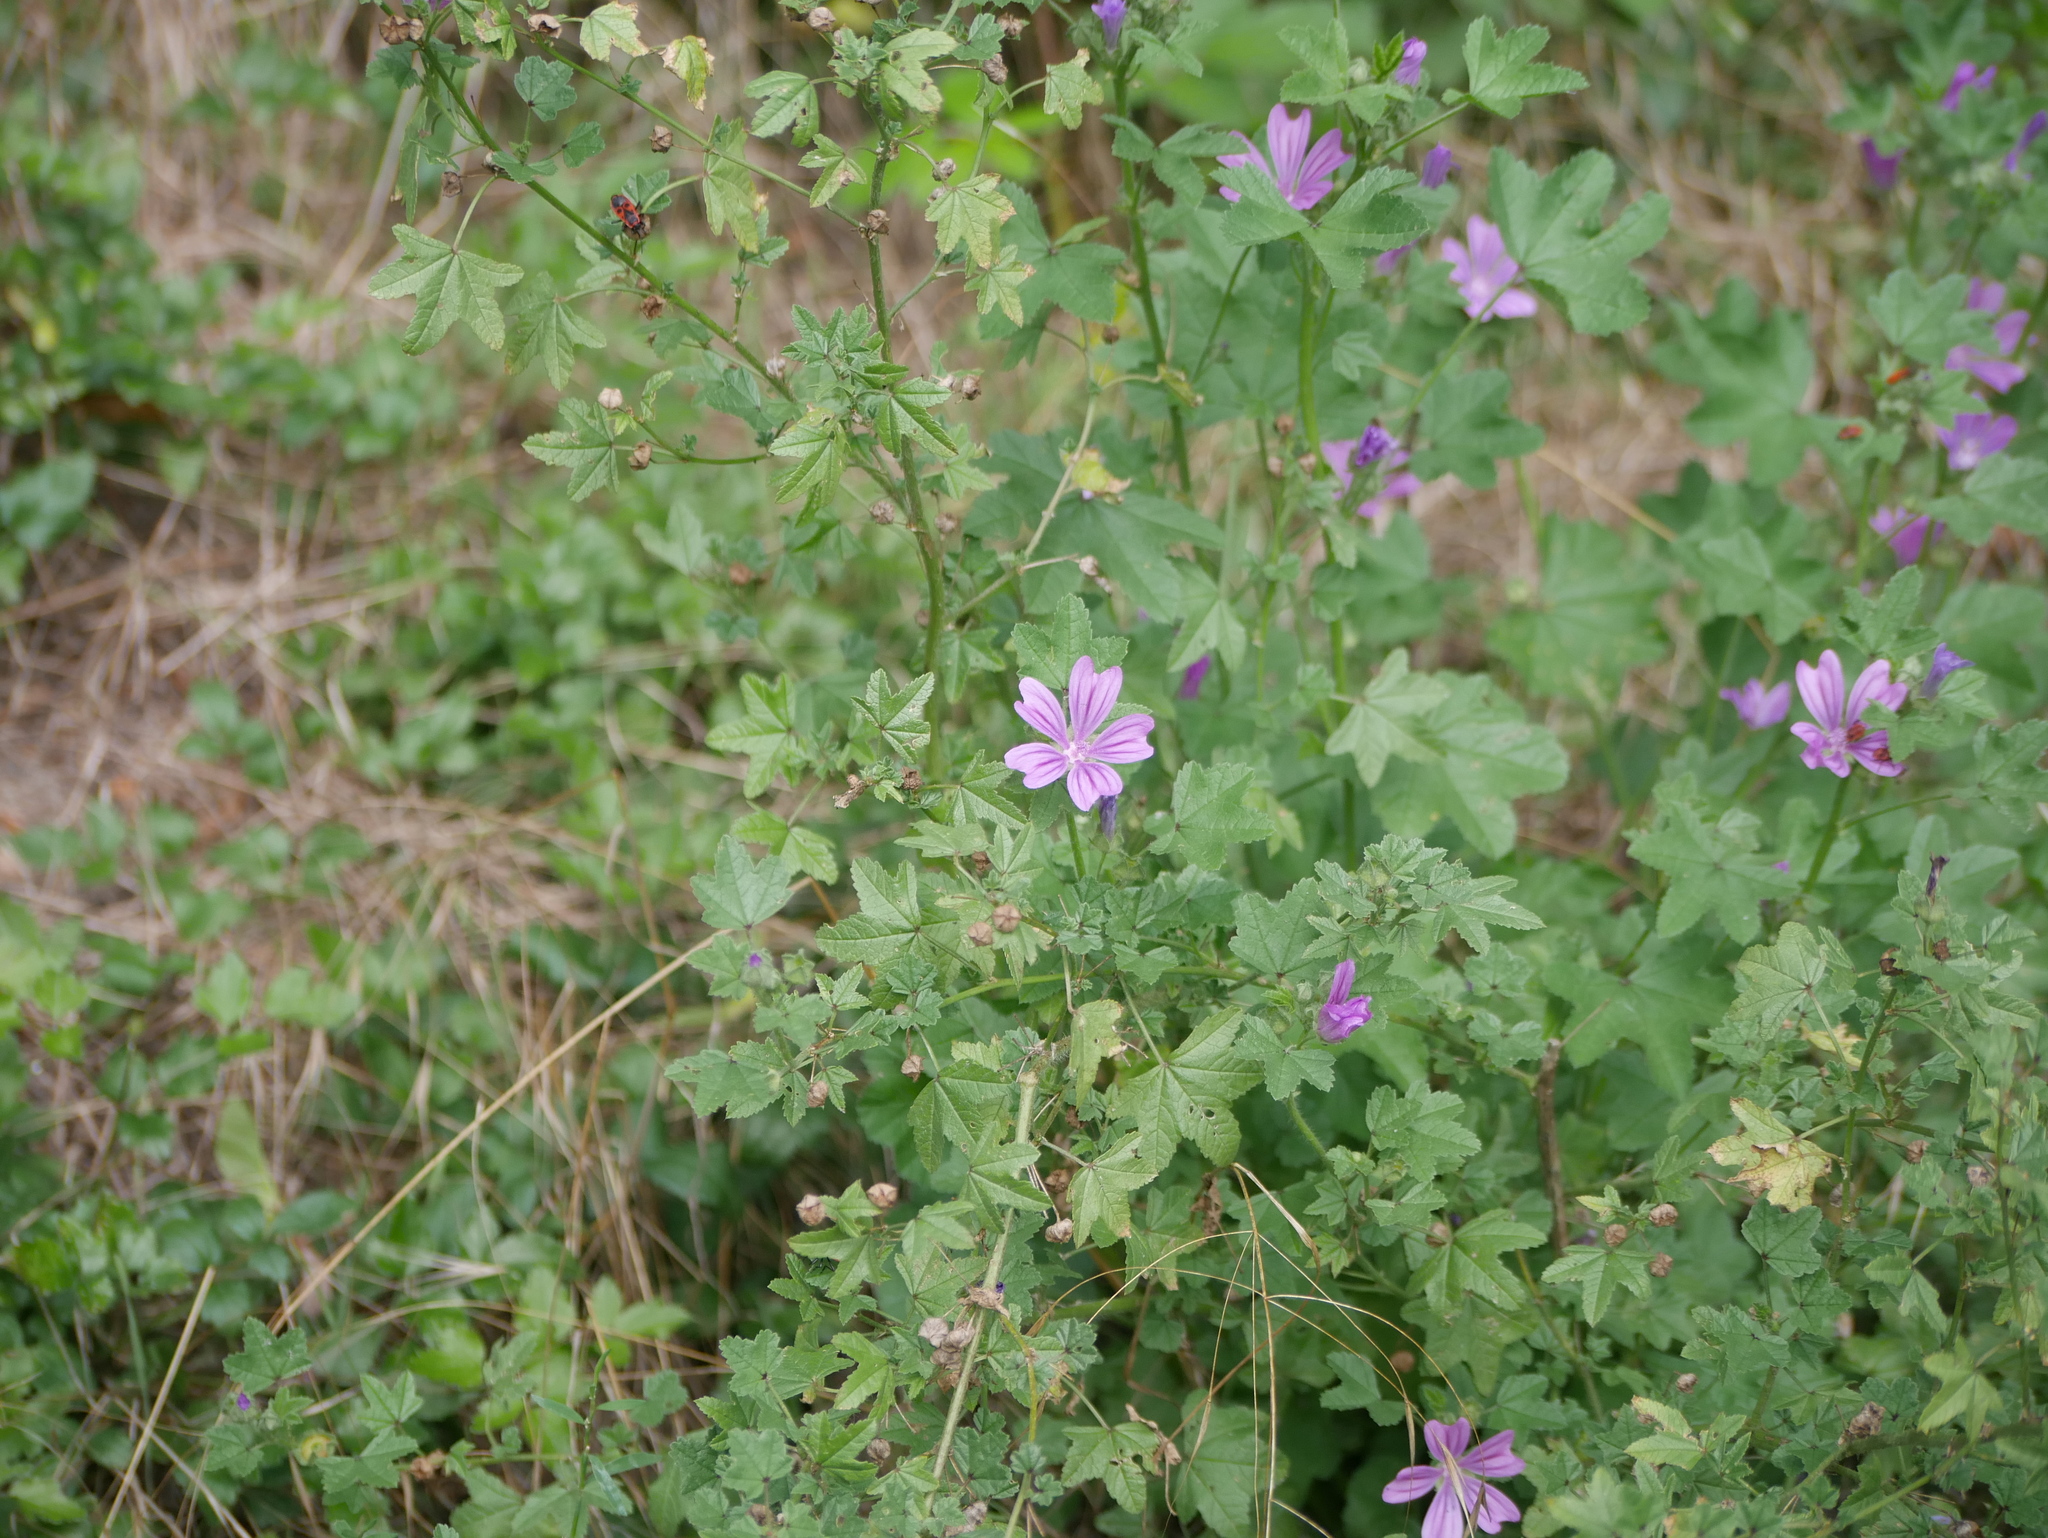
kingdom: Plantae
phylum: Tracheophyta
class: Magnoliopsida
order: Malvales
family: Malvaceae
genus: Malva
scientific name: Malva sylvestris
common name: Common mallow
